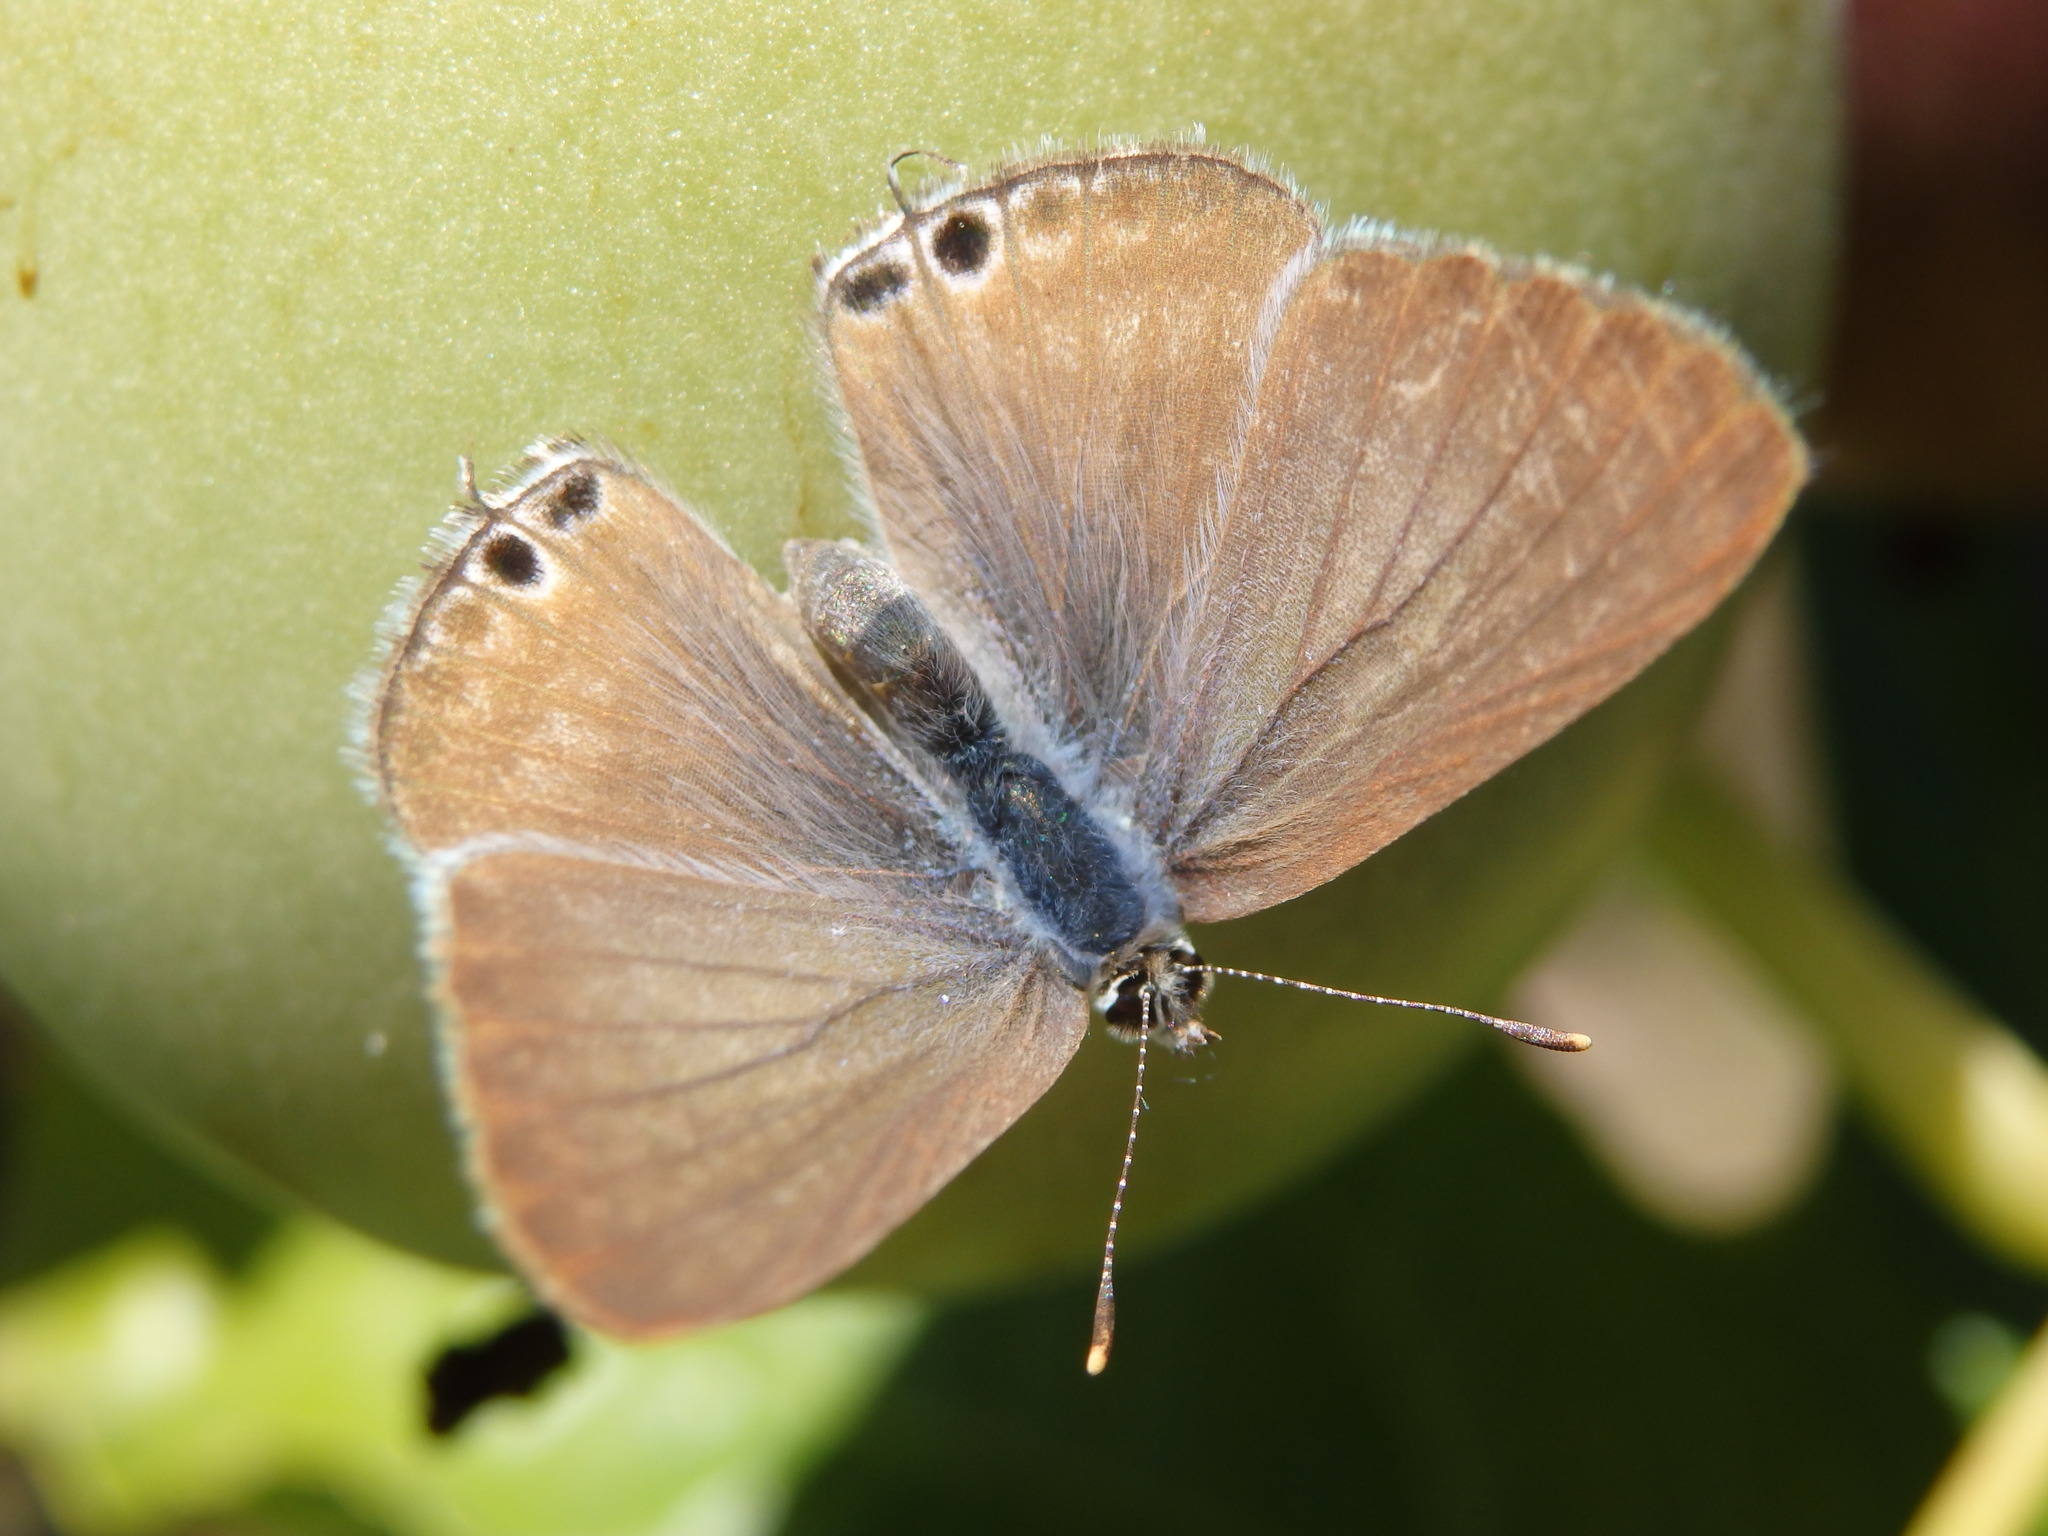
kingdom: Animalia
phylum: Arthropoda
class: Insecta
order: Lepidoptera
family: Lycaenidae
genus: Lampides
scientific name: Lampides boeticus
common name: Long-tailed blue
